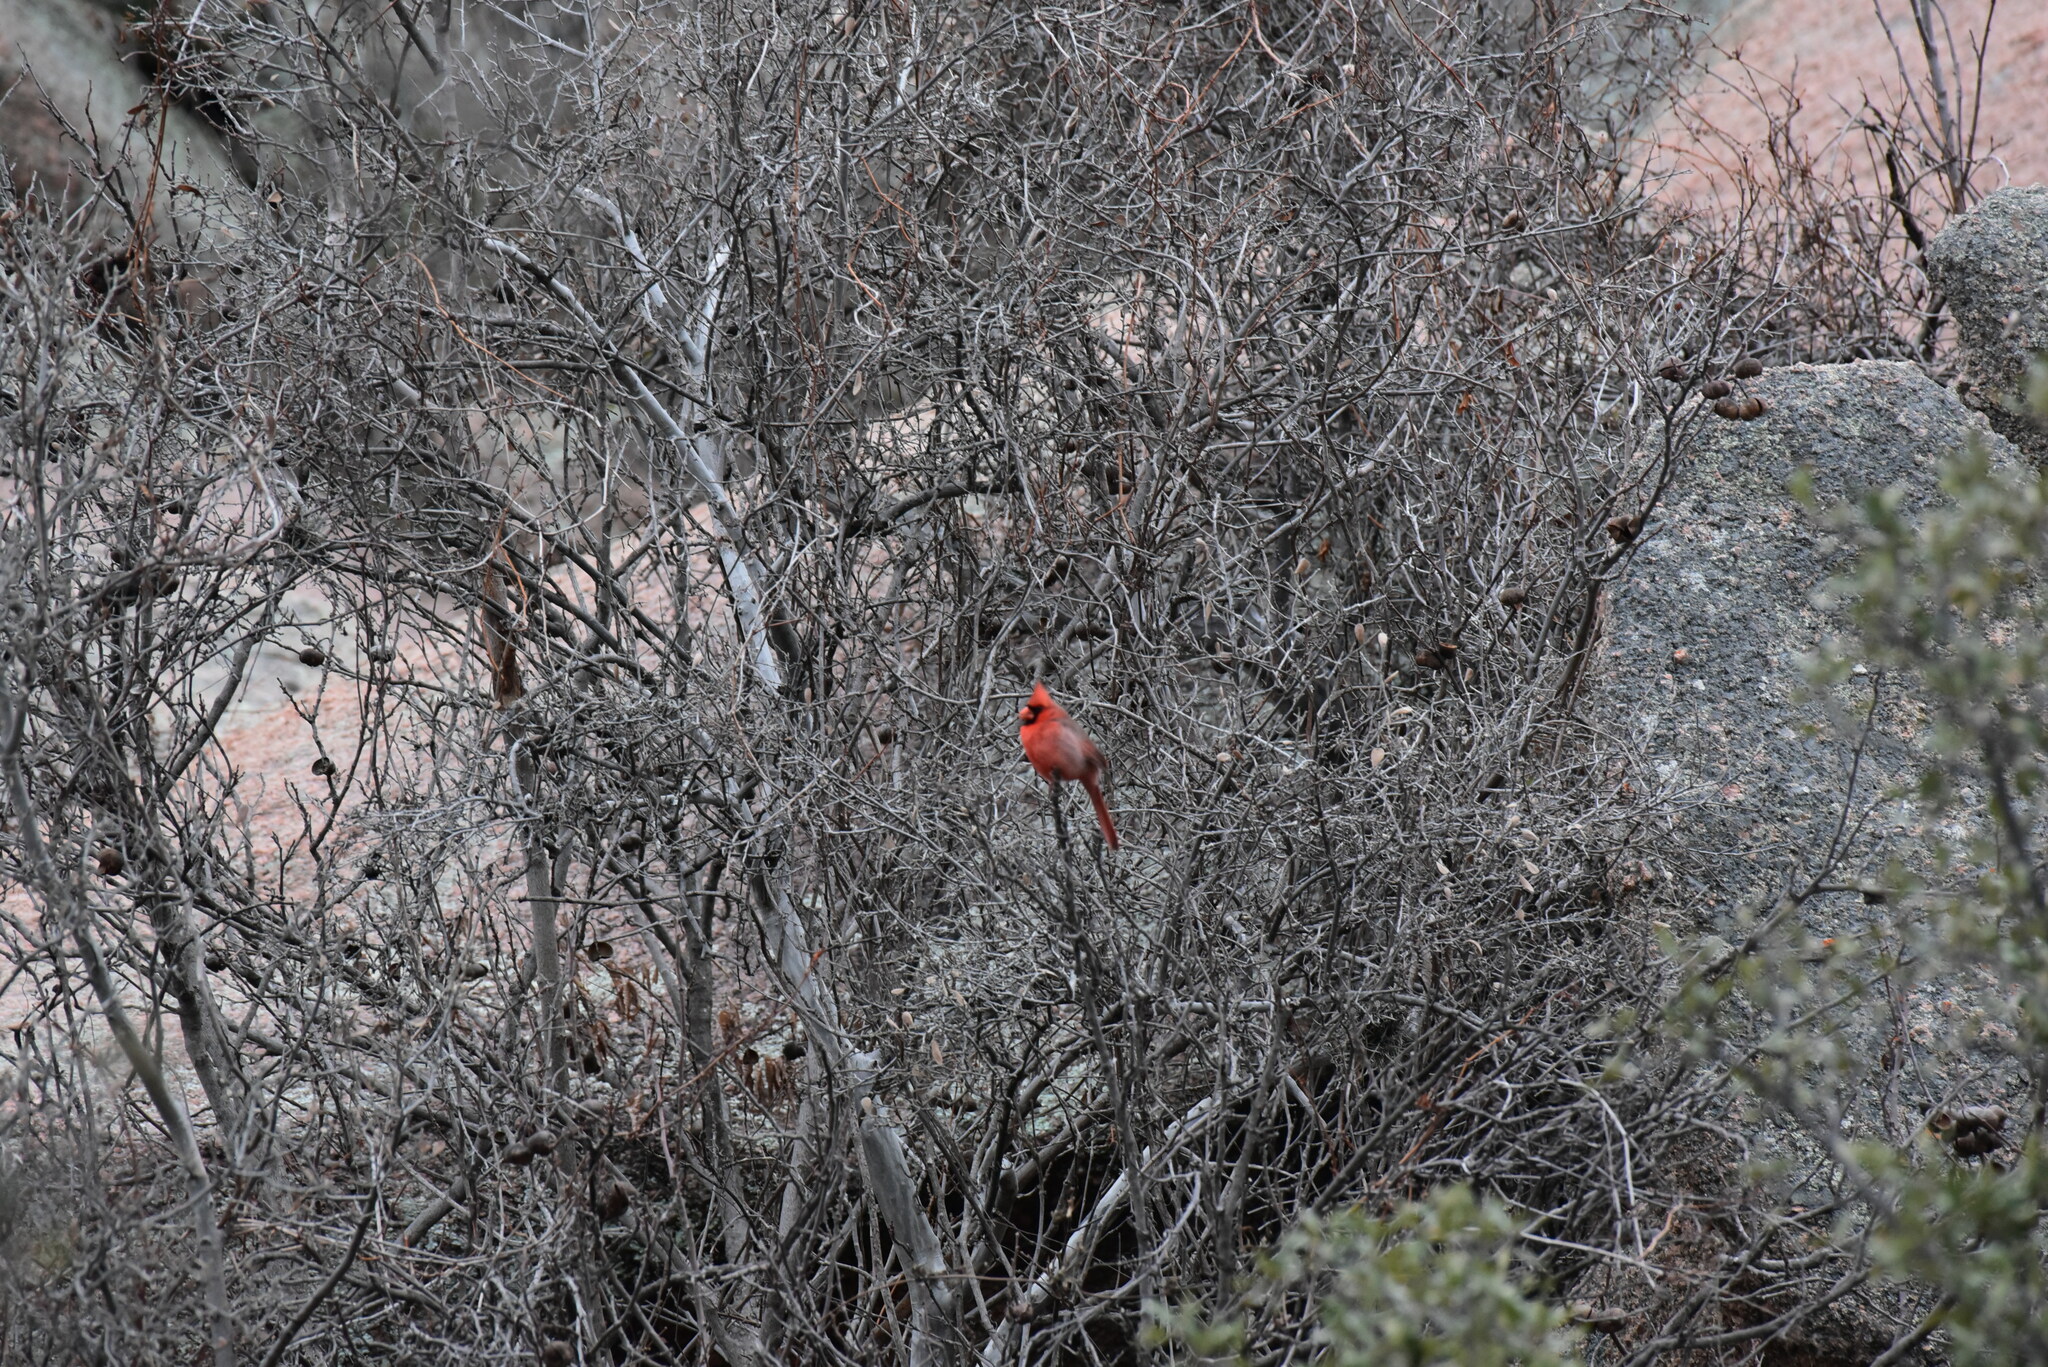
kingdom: Animalia
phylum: Chordata
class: Aves
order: Passeriformes
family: Cardinalidae
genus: Cardinalis
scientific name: Cardinalis cardinalis
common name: Northern cardinal
